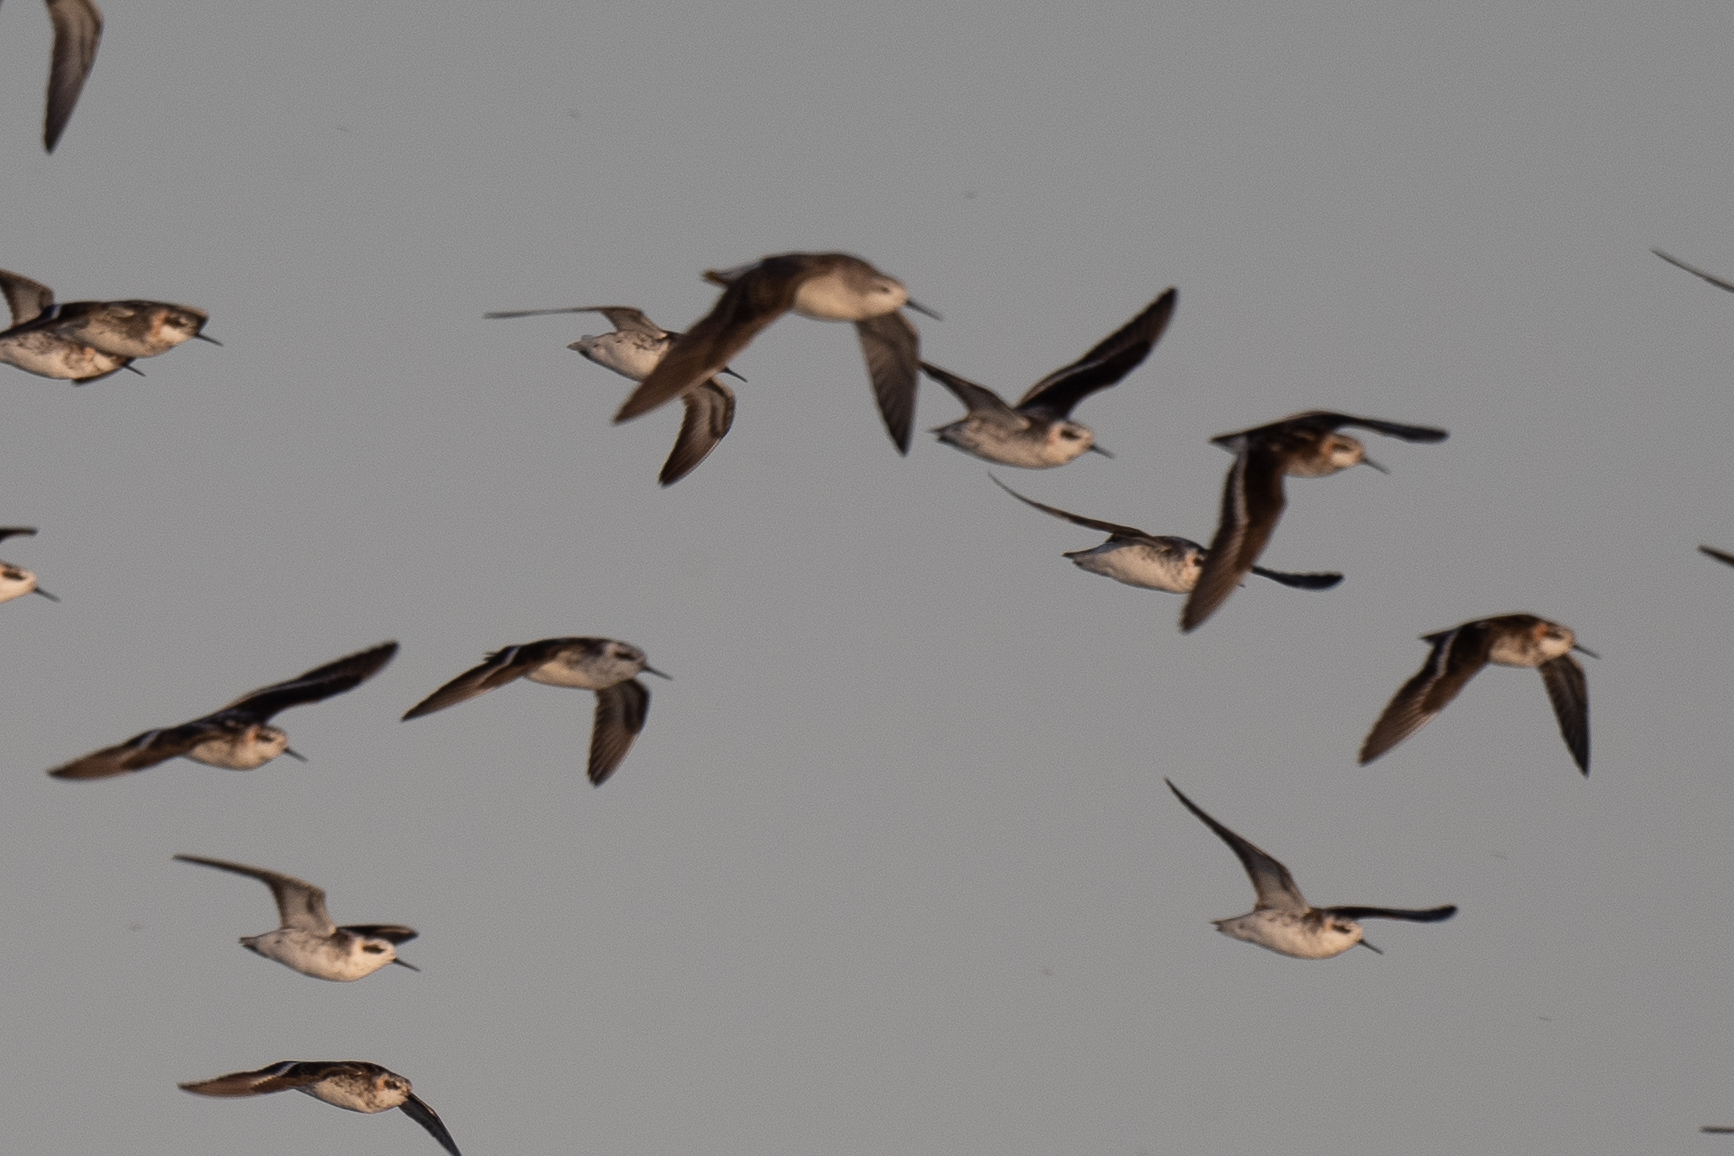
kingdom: Animalia
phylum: Chordata
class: Aves
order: Charadriiformes
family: Scolopacidae
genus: Phalaropus
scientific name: Phalaropus tricolor
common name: Wilson's phalarope
